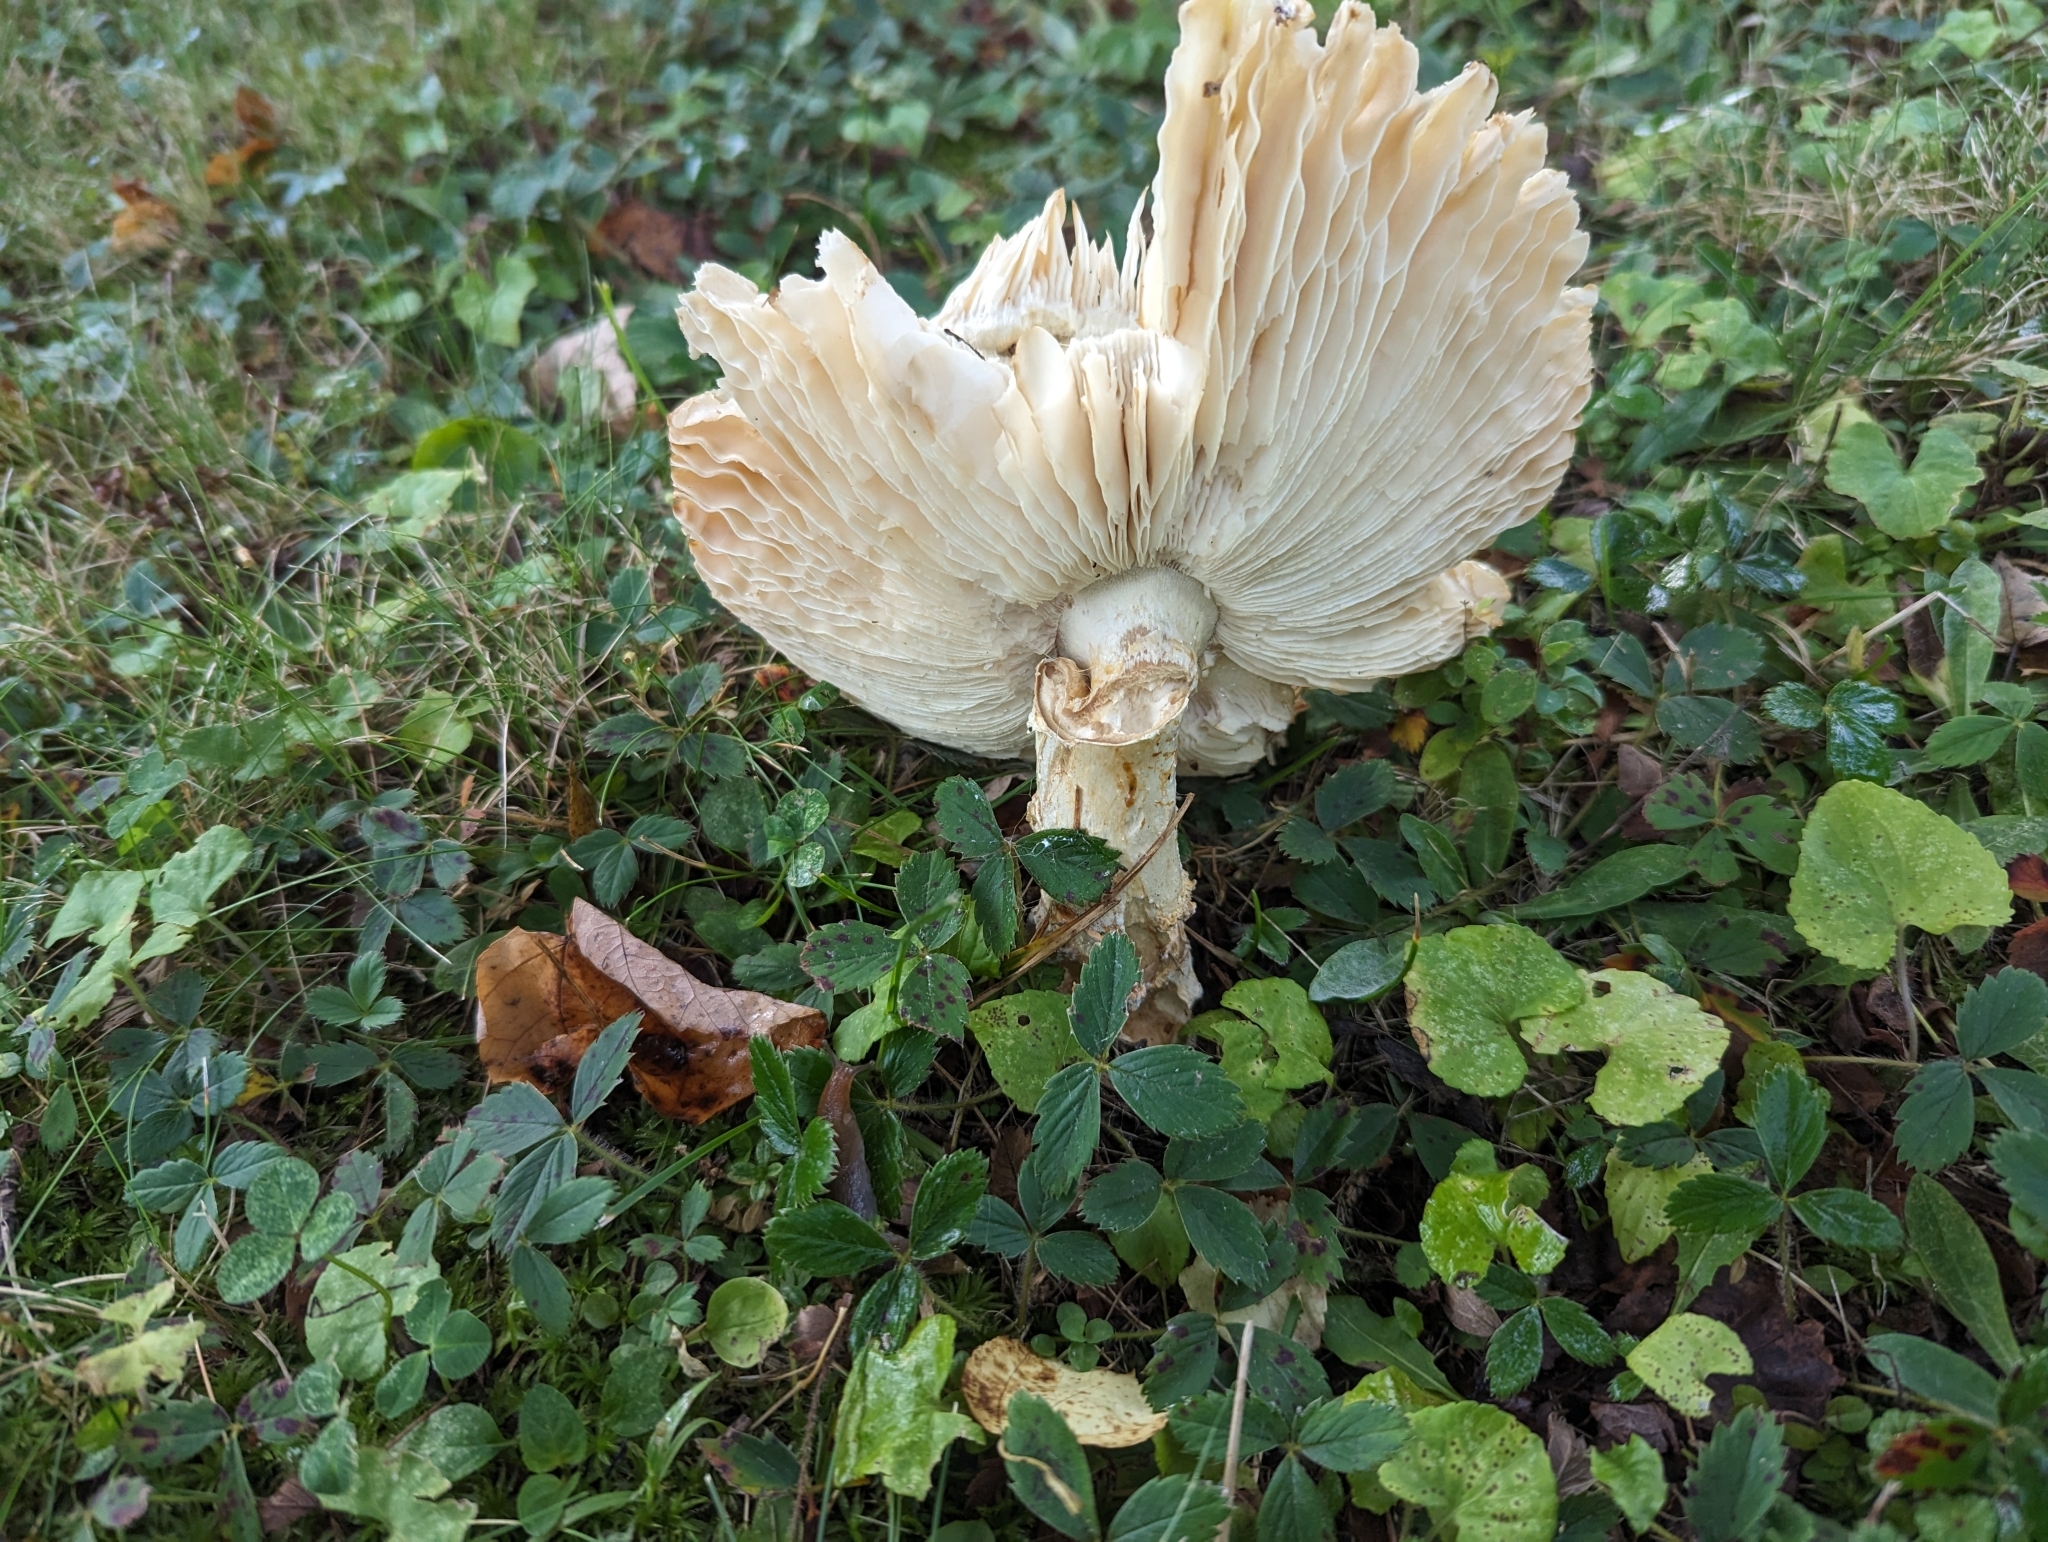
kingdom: Fungi
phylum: Basidiomycota
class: Agaricomycetes
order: Agaricales
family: Amanitaceae
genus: Amanita
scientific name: Amanita muscaria
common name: Fly agaric
